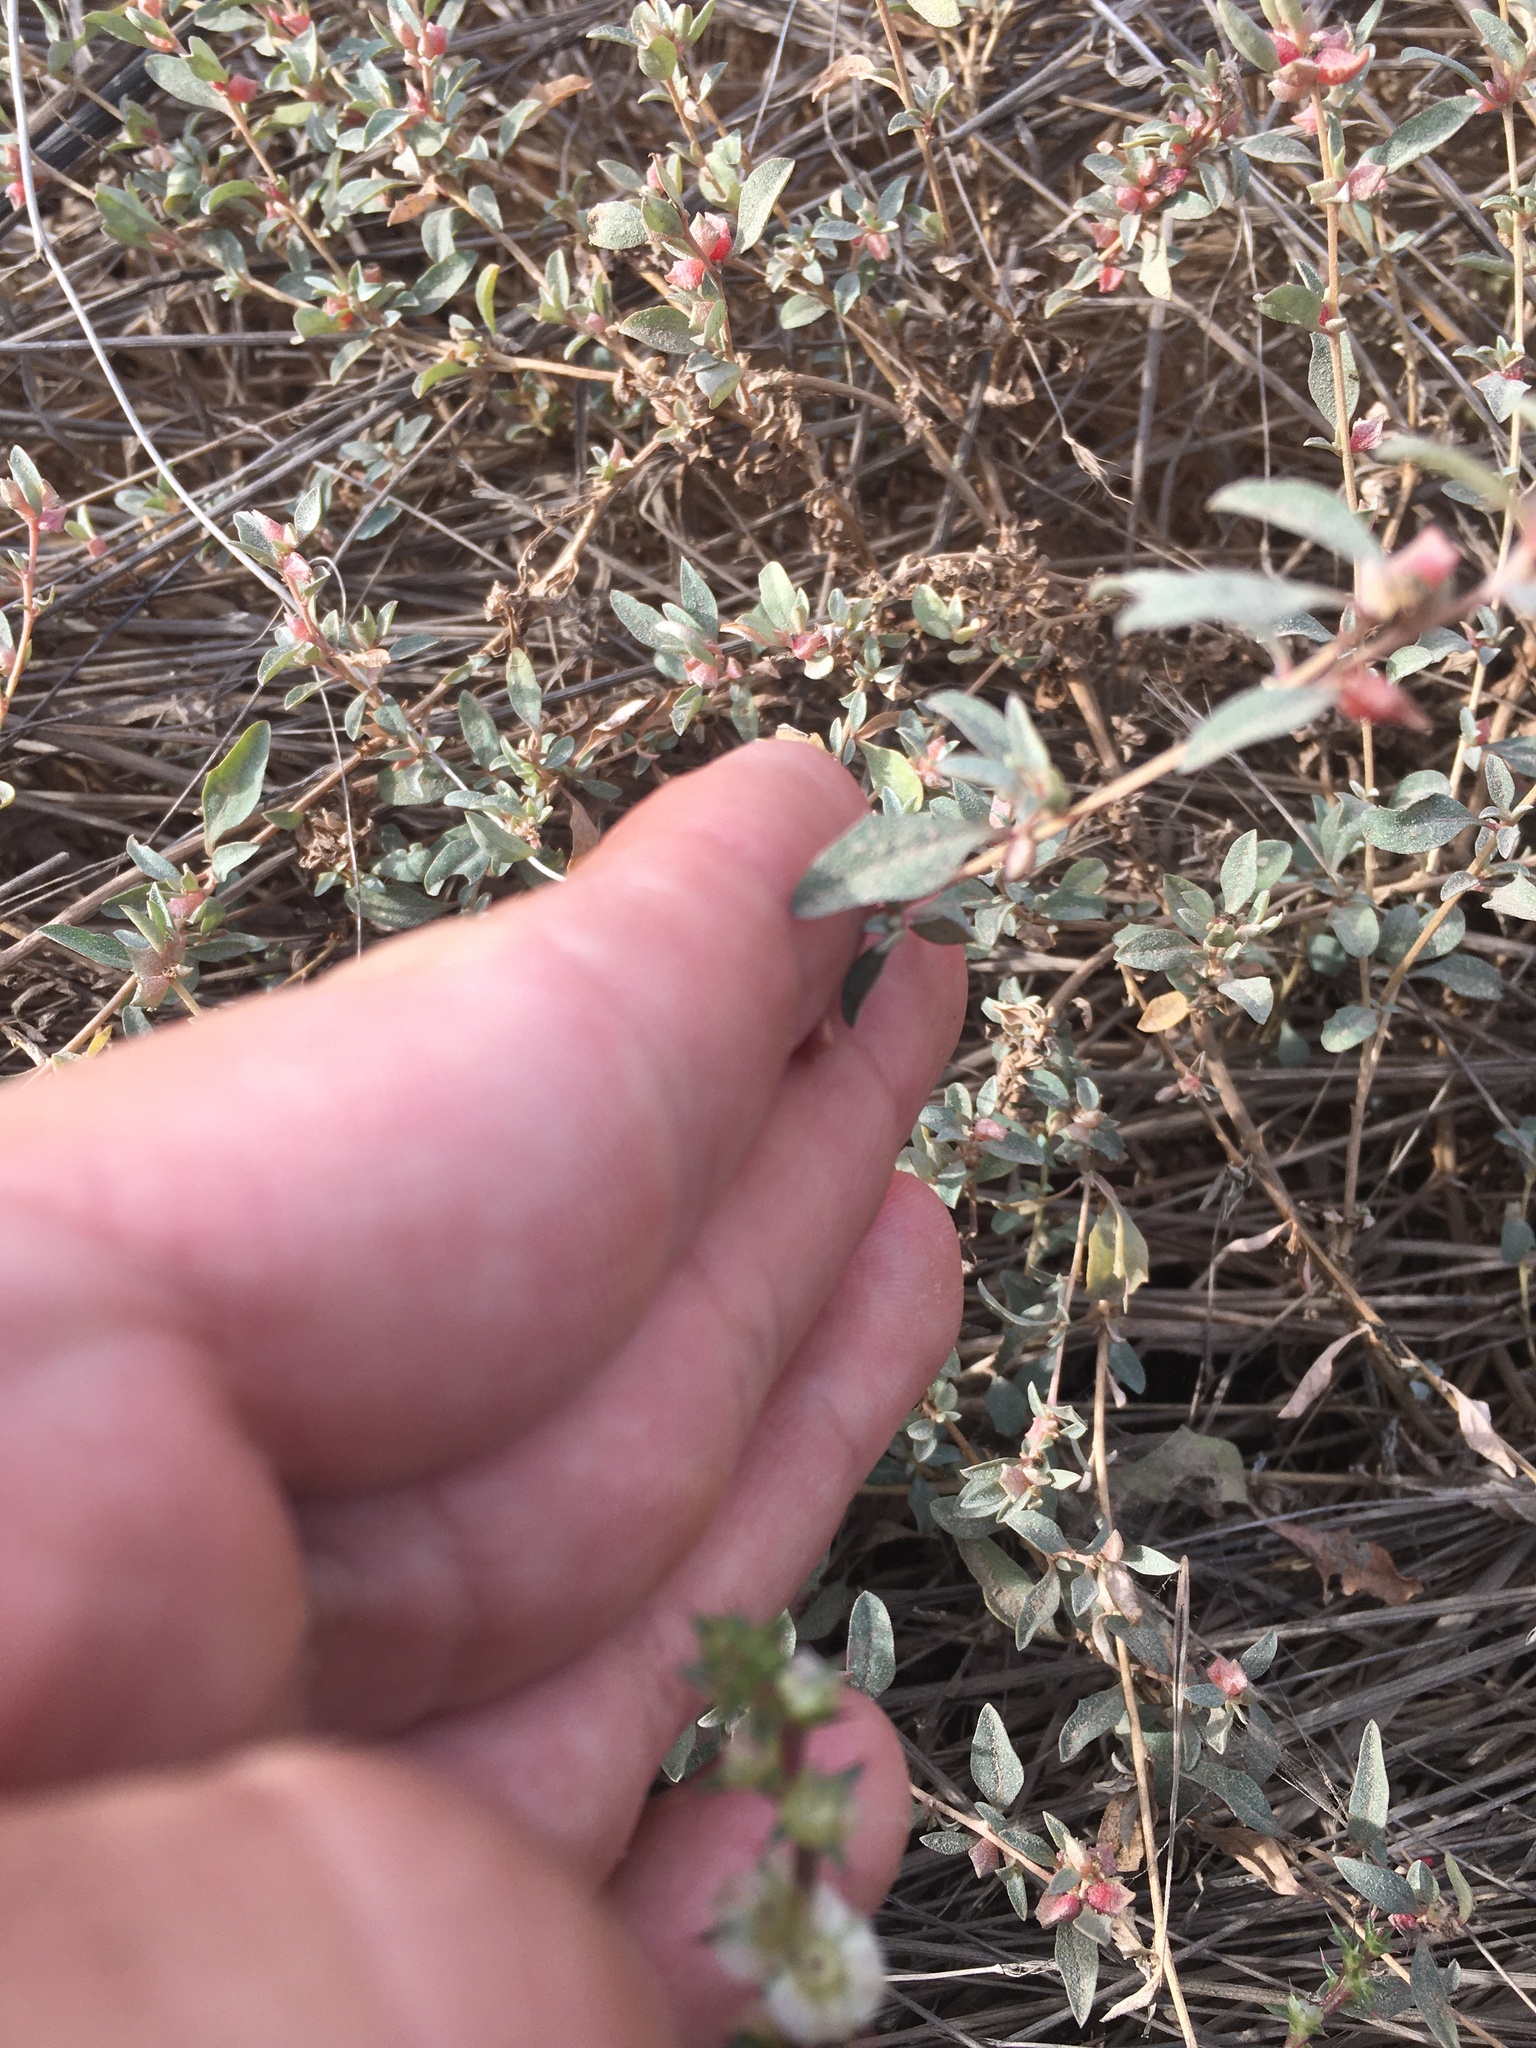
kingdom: Plantae
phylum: Tracheophyta
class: Magnoliopsida
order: Caryophyllales
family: Amaranthaceae
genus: Atriplex
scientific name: Atriplex semibaccata
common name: Australian saltbush
